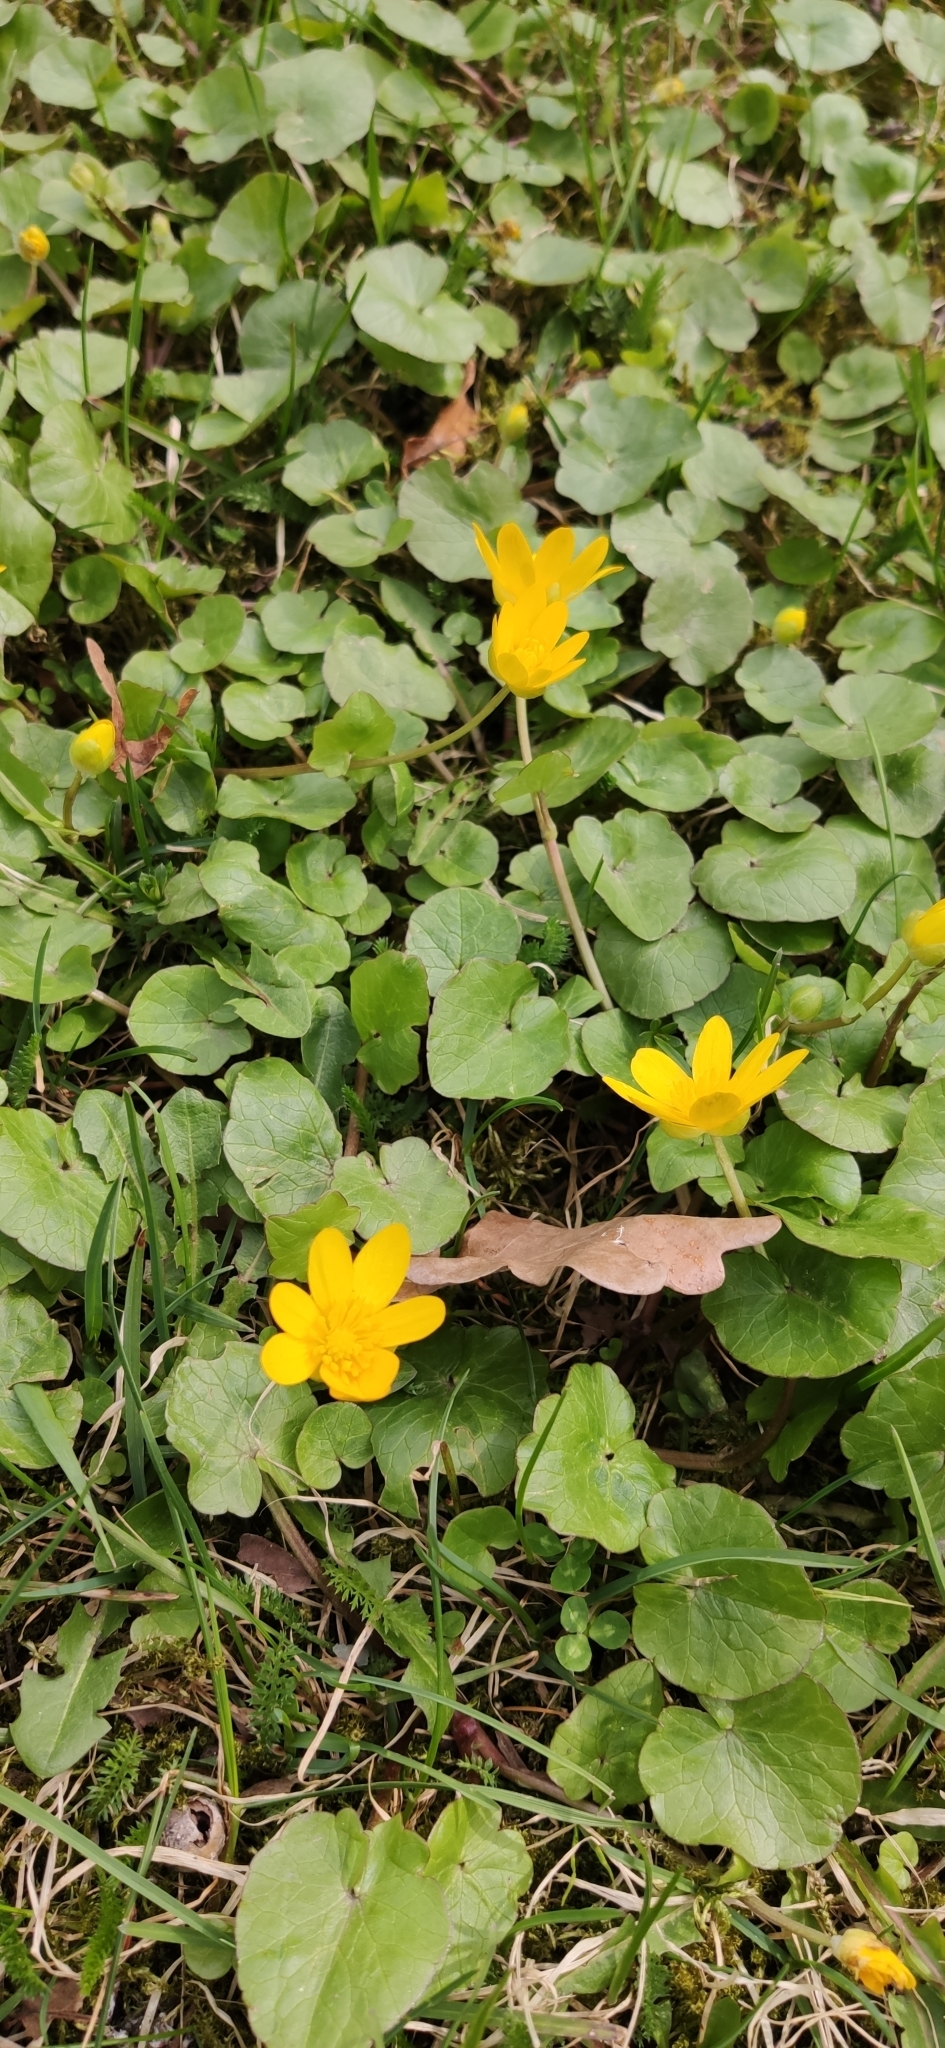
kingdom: Plantae
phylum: Tracheophyta
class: Magnoliopsida
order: Ranunculales
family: Ranunculaceae
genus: Ficaria
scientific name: Ficaria verna
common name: Lesser celandine
